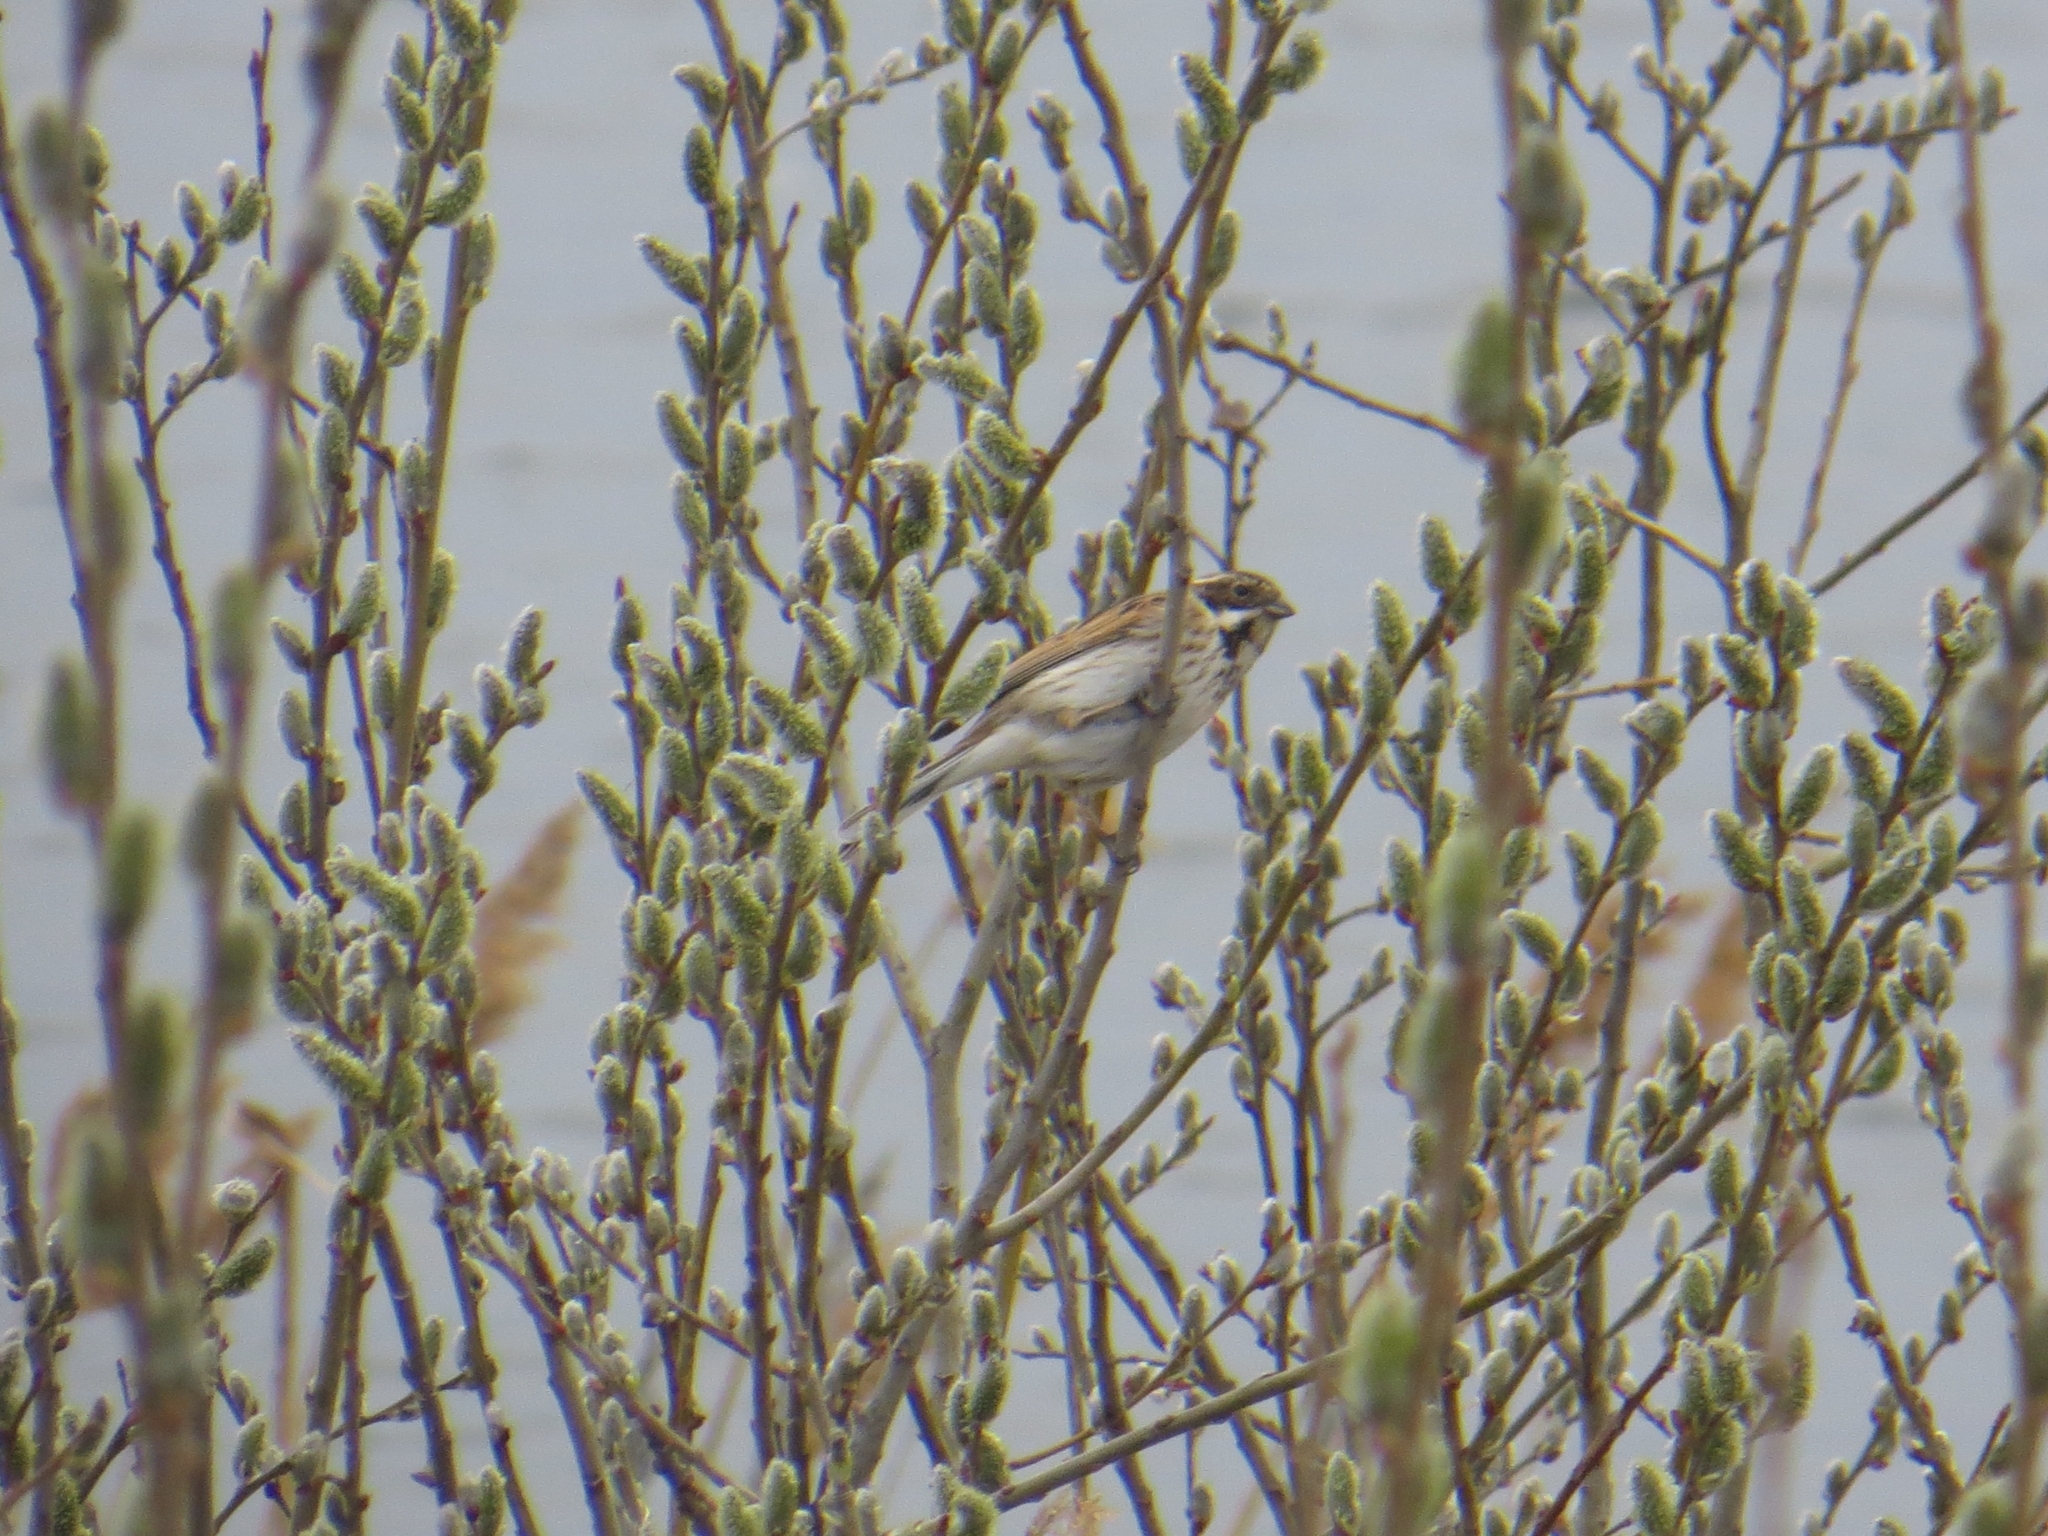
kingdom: Animalia
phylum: Chordata
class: Aves
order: Passeriformes
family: Emberizidae
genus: Emberiza
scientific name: Emberiza schoeniclus
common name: Reed bunting
